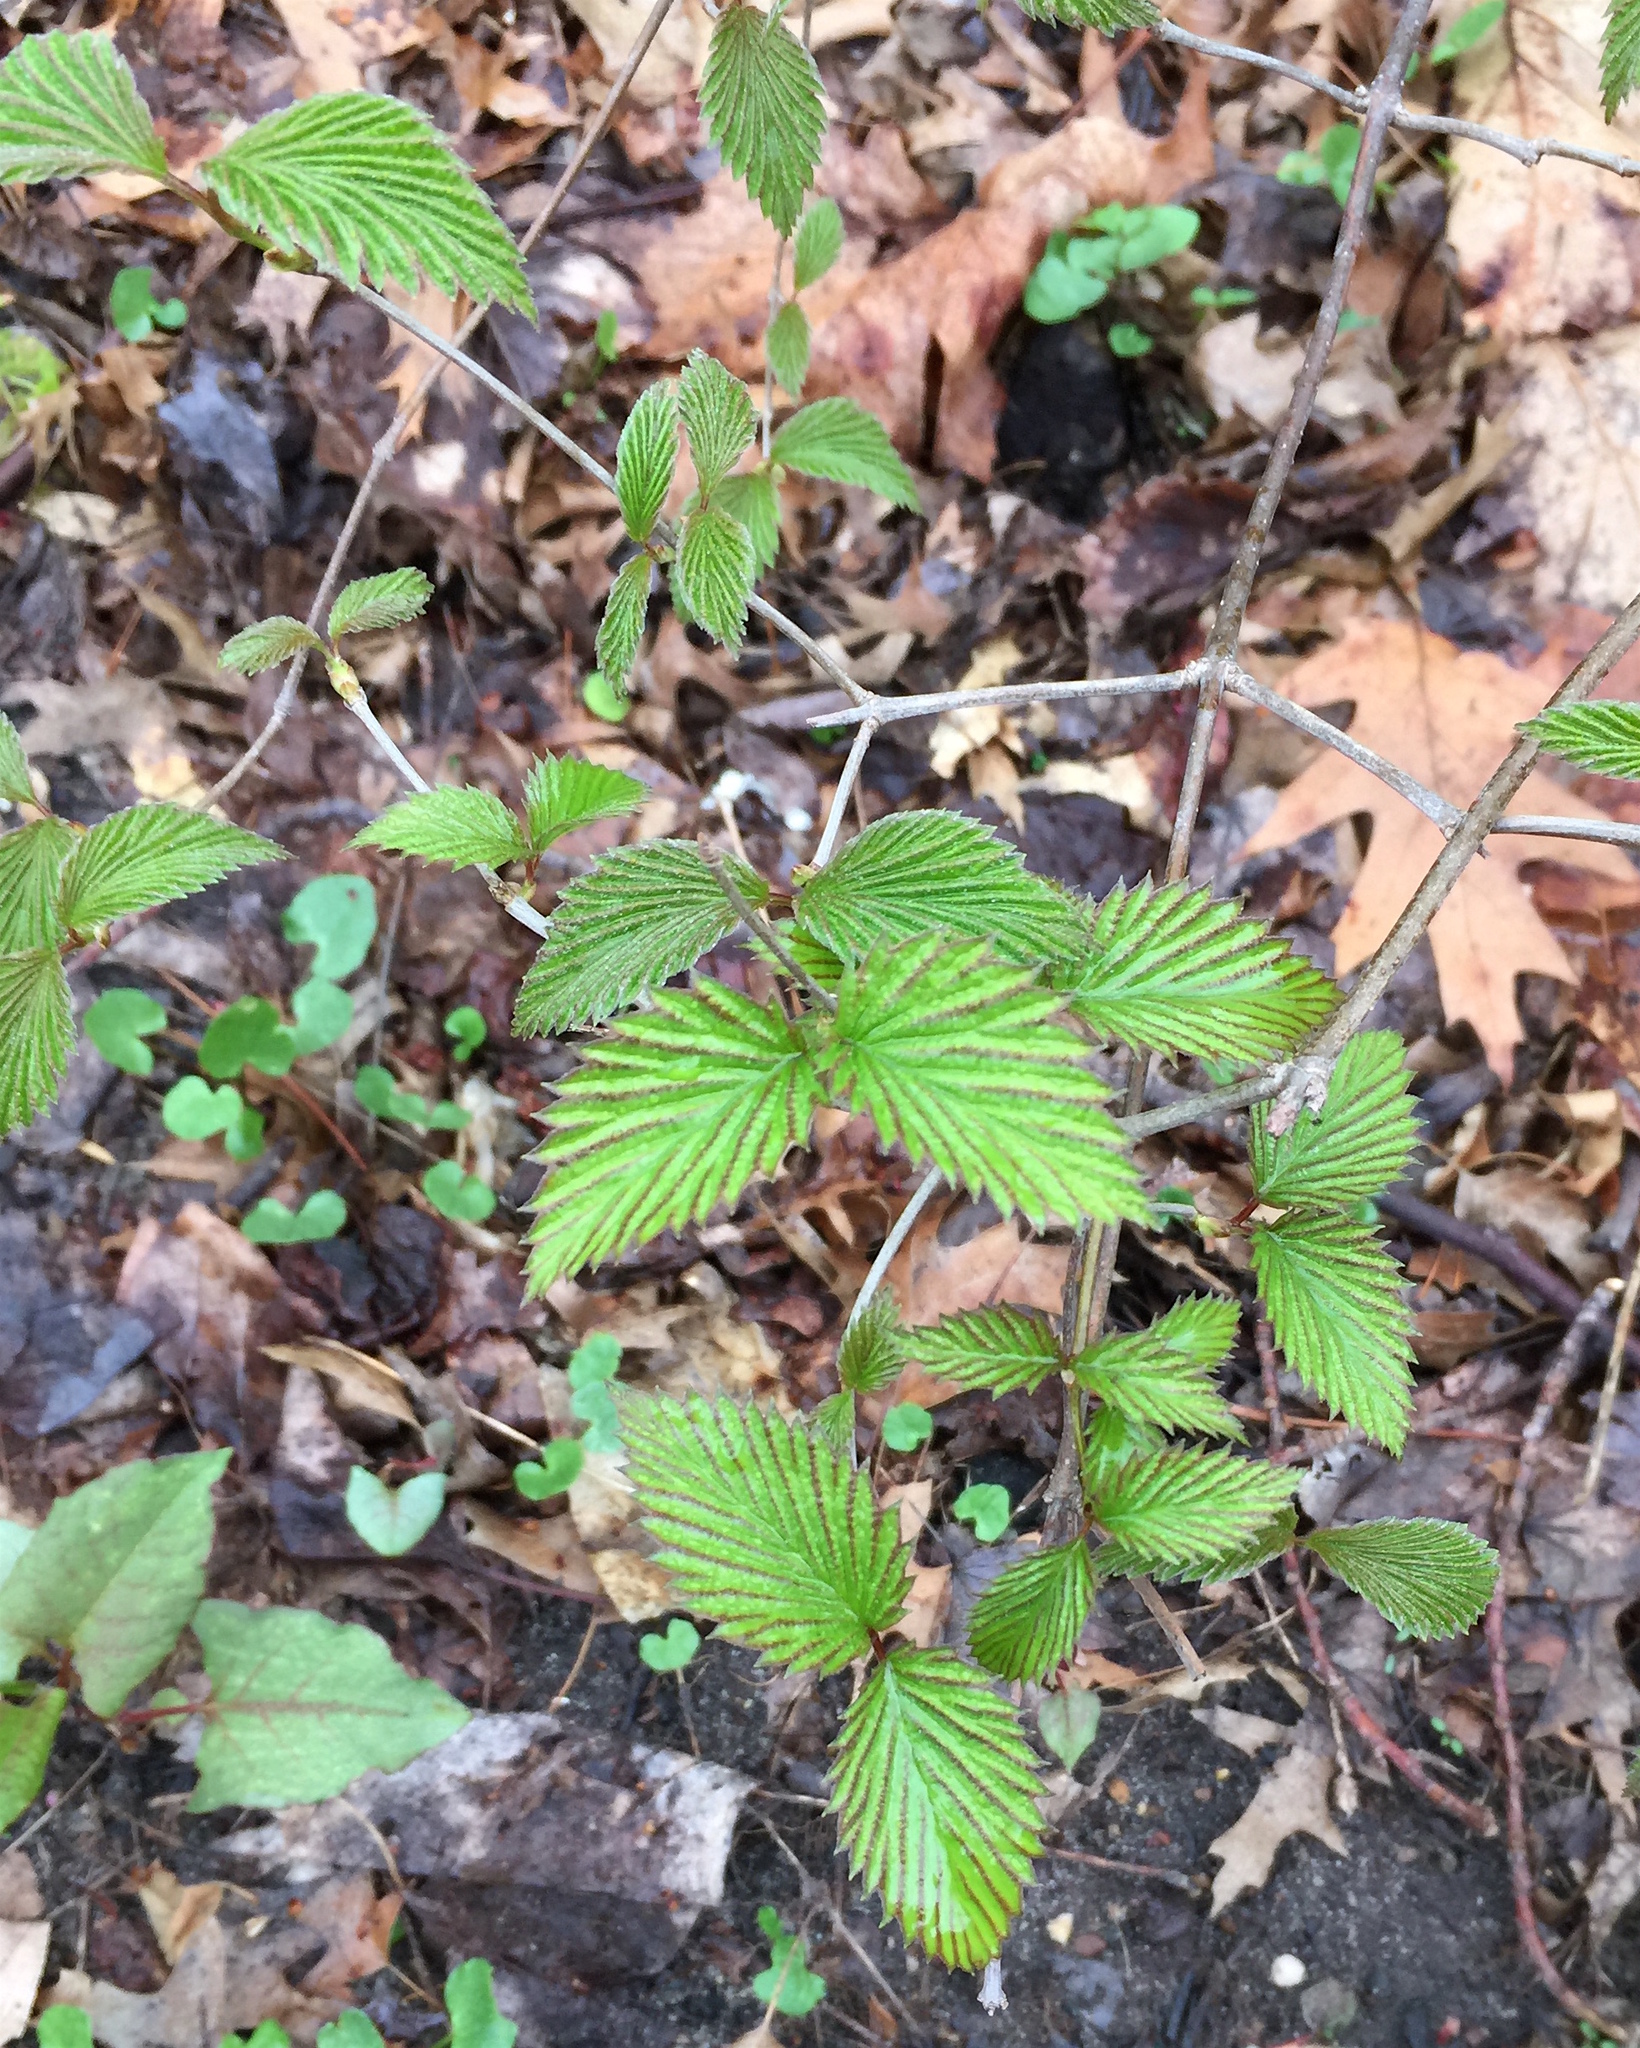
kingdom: Plantae
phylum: Tracheophyta
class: Magnoliopsida
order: Dipsacales
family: Viburnaceae
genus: Viburnum
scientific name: Viburnum dentatum
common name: Arrow-wood
